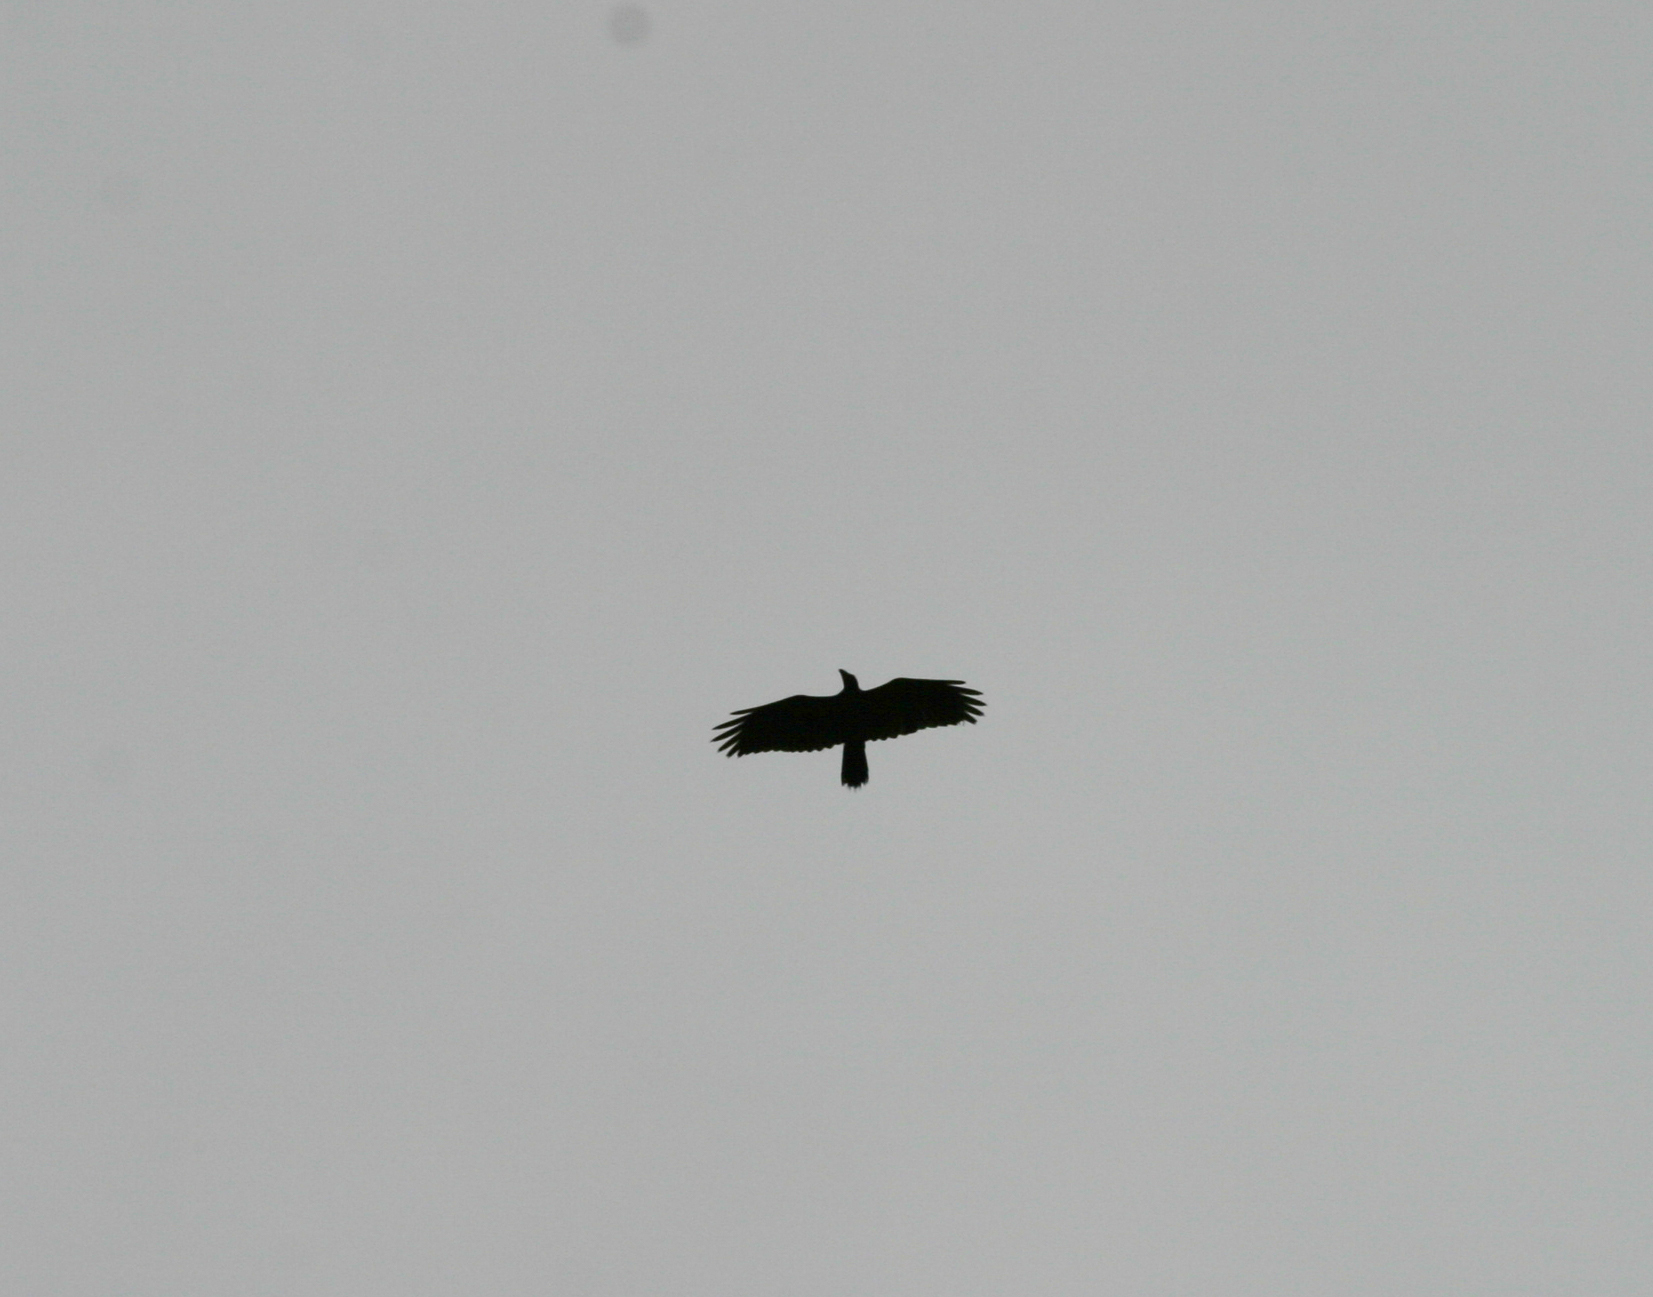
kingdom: Animalia
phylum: Chordata
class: Aves
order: Passeriformes
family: Corvidae
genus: Corvus
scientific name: Corvus corax
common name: Common raven
